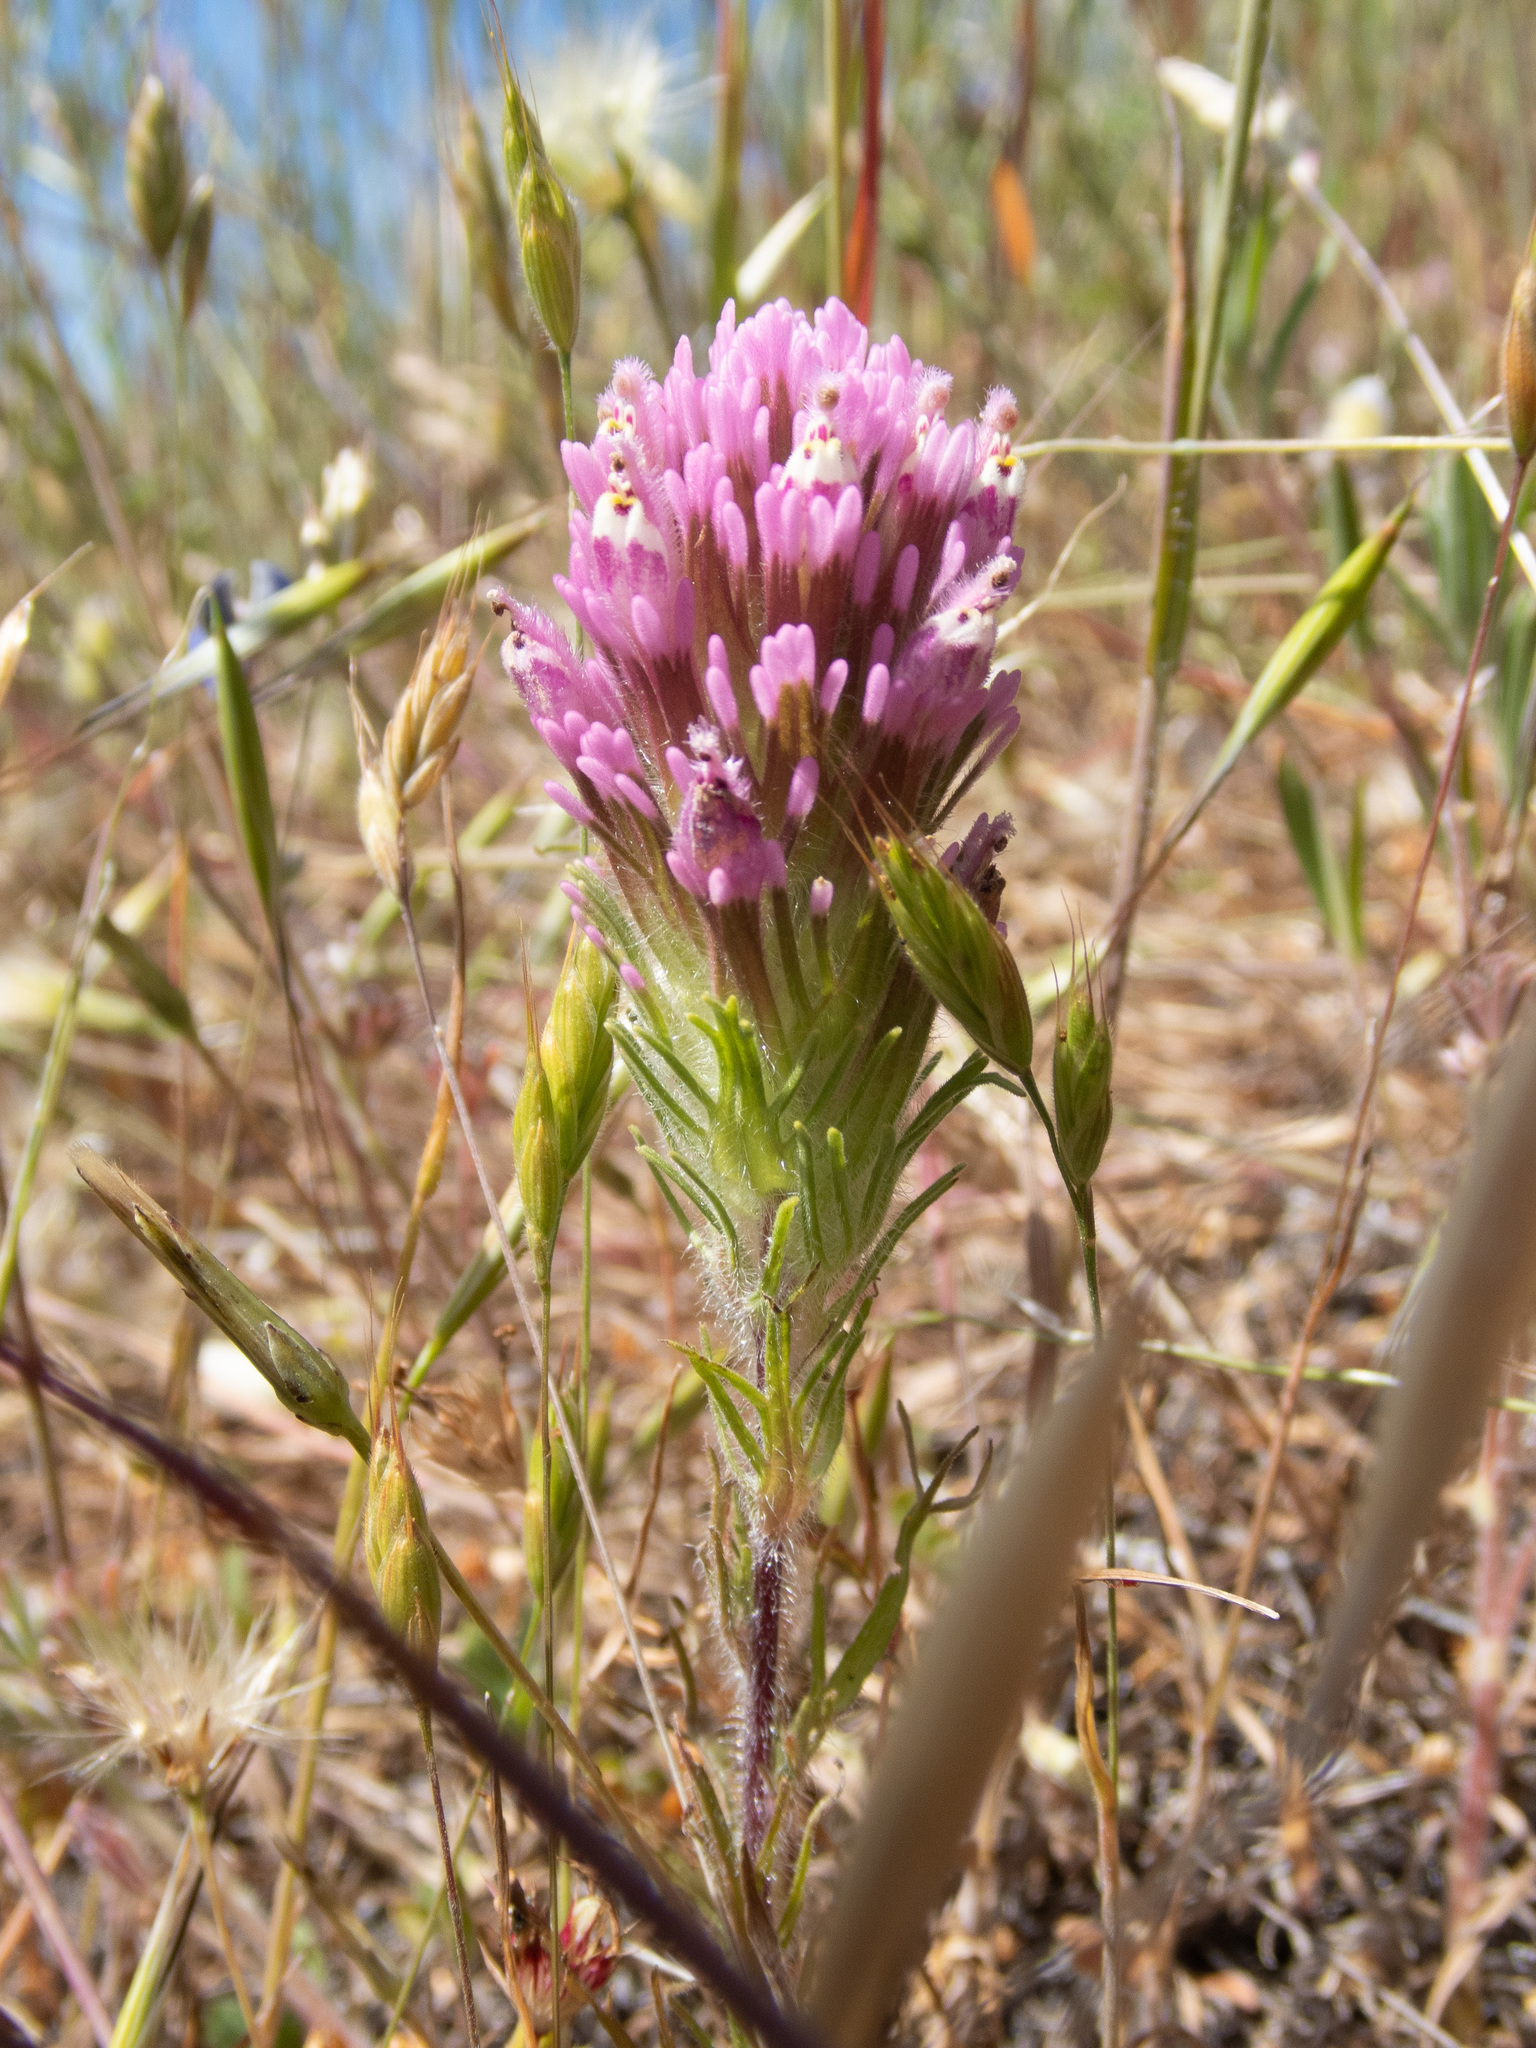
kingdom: Plantae
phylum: Tracheophyta
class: Magnoliopsida
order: Lamiales
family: Orobanchaceae
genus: Castilleja
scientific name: Castilleja exserta
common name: Purple owl-clover
